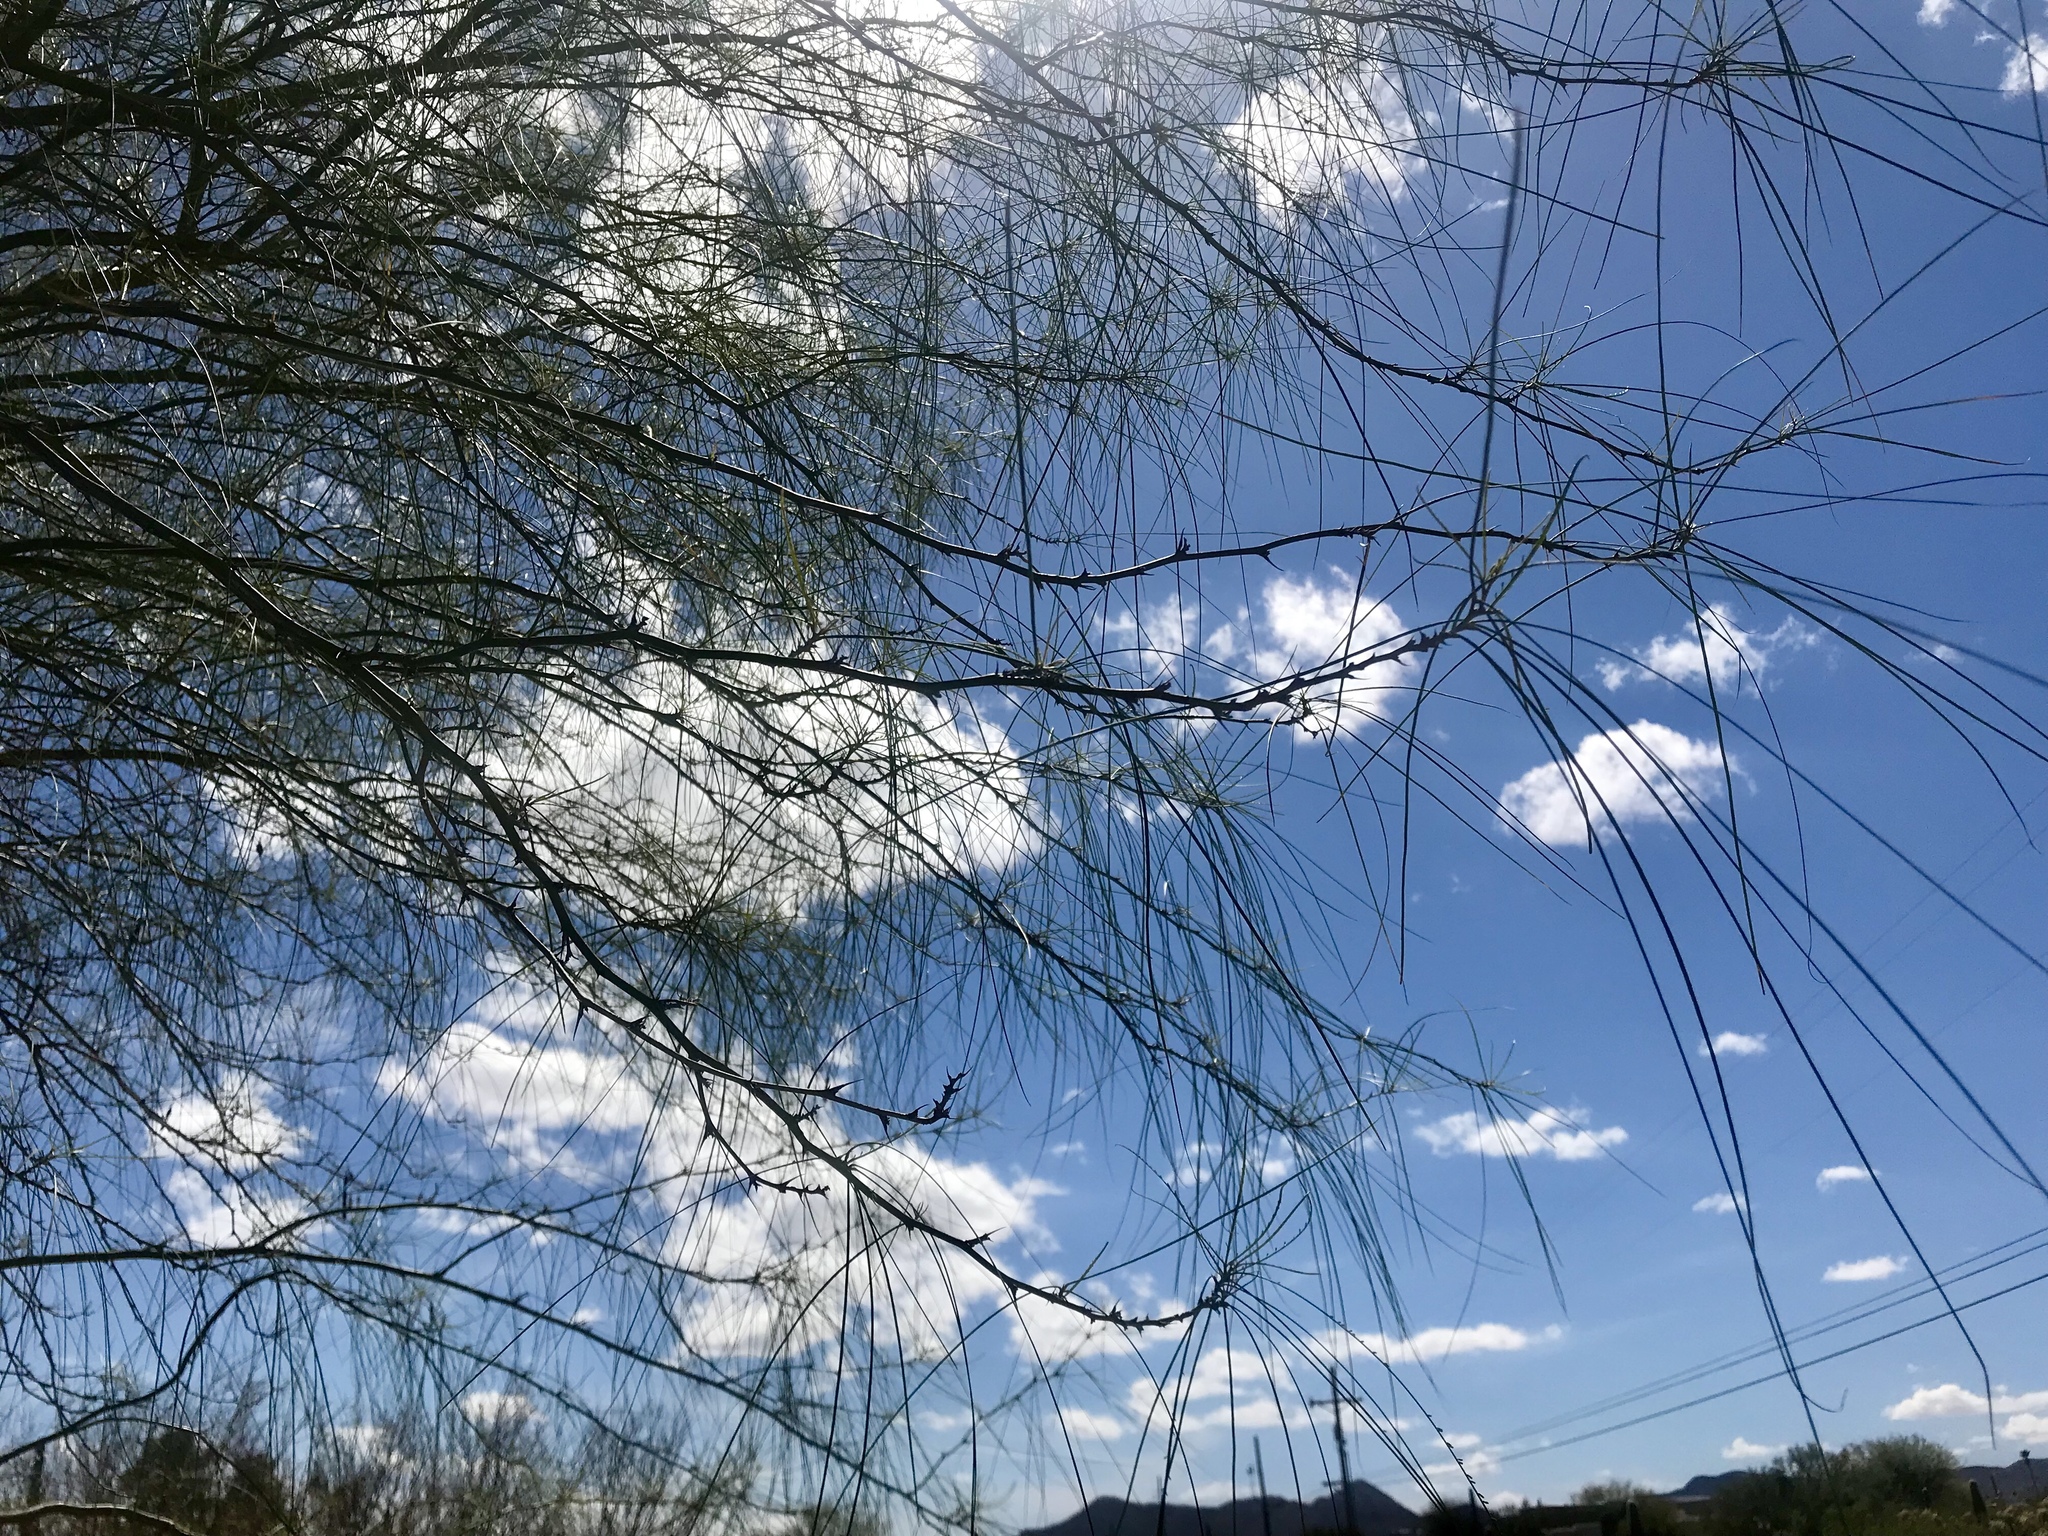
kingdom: Plantae
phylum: Tracheophyta
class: Magnoliopsida
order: Fabales
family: Fabaceae
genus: Parkinsonia
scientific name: Parkinsonia aculeata
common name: Jerusalem thorn
